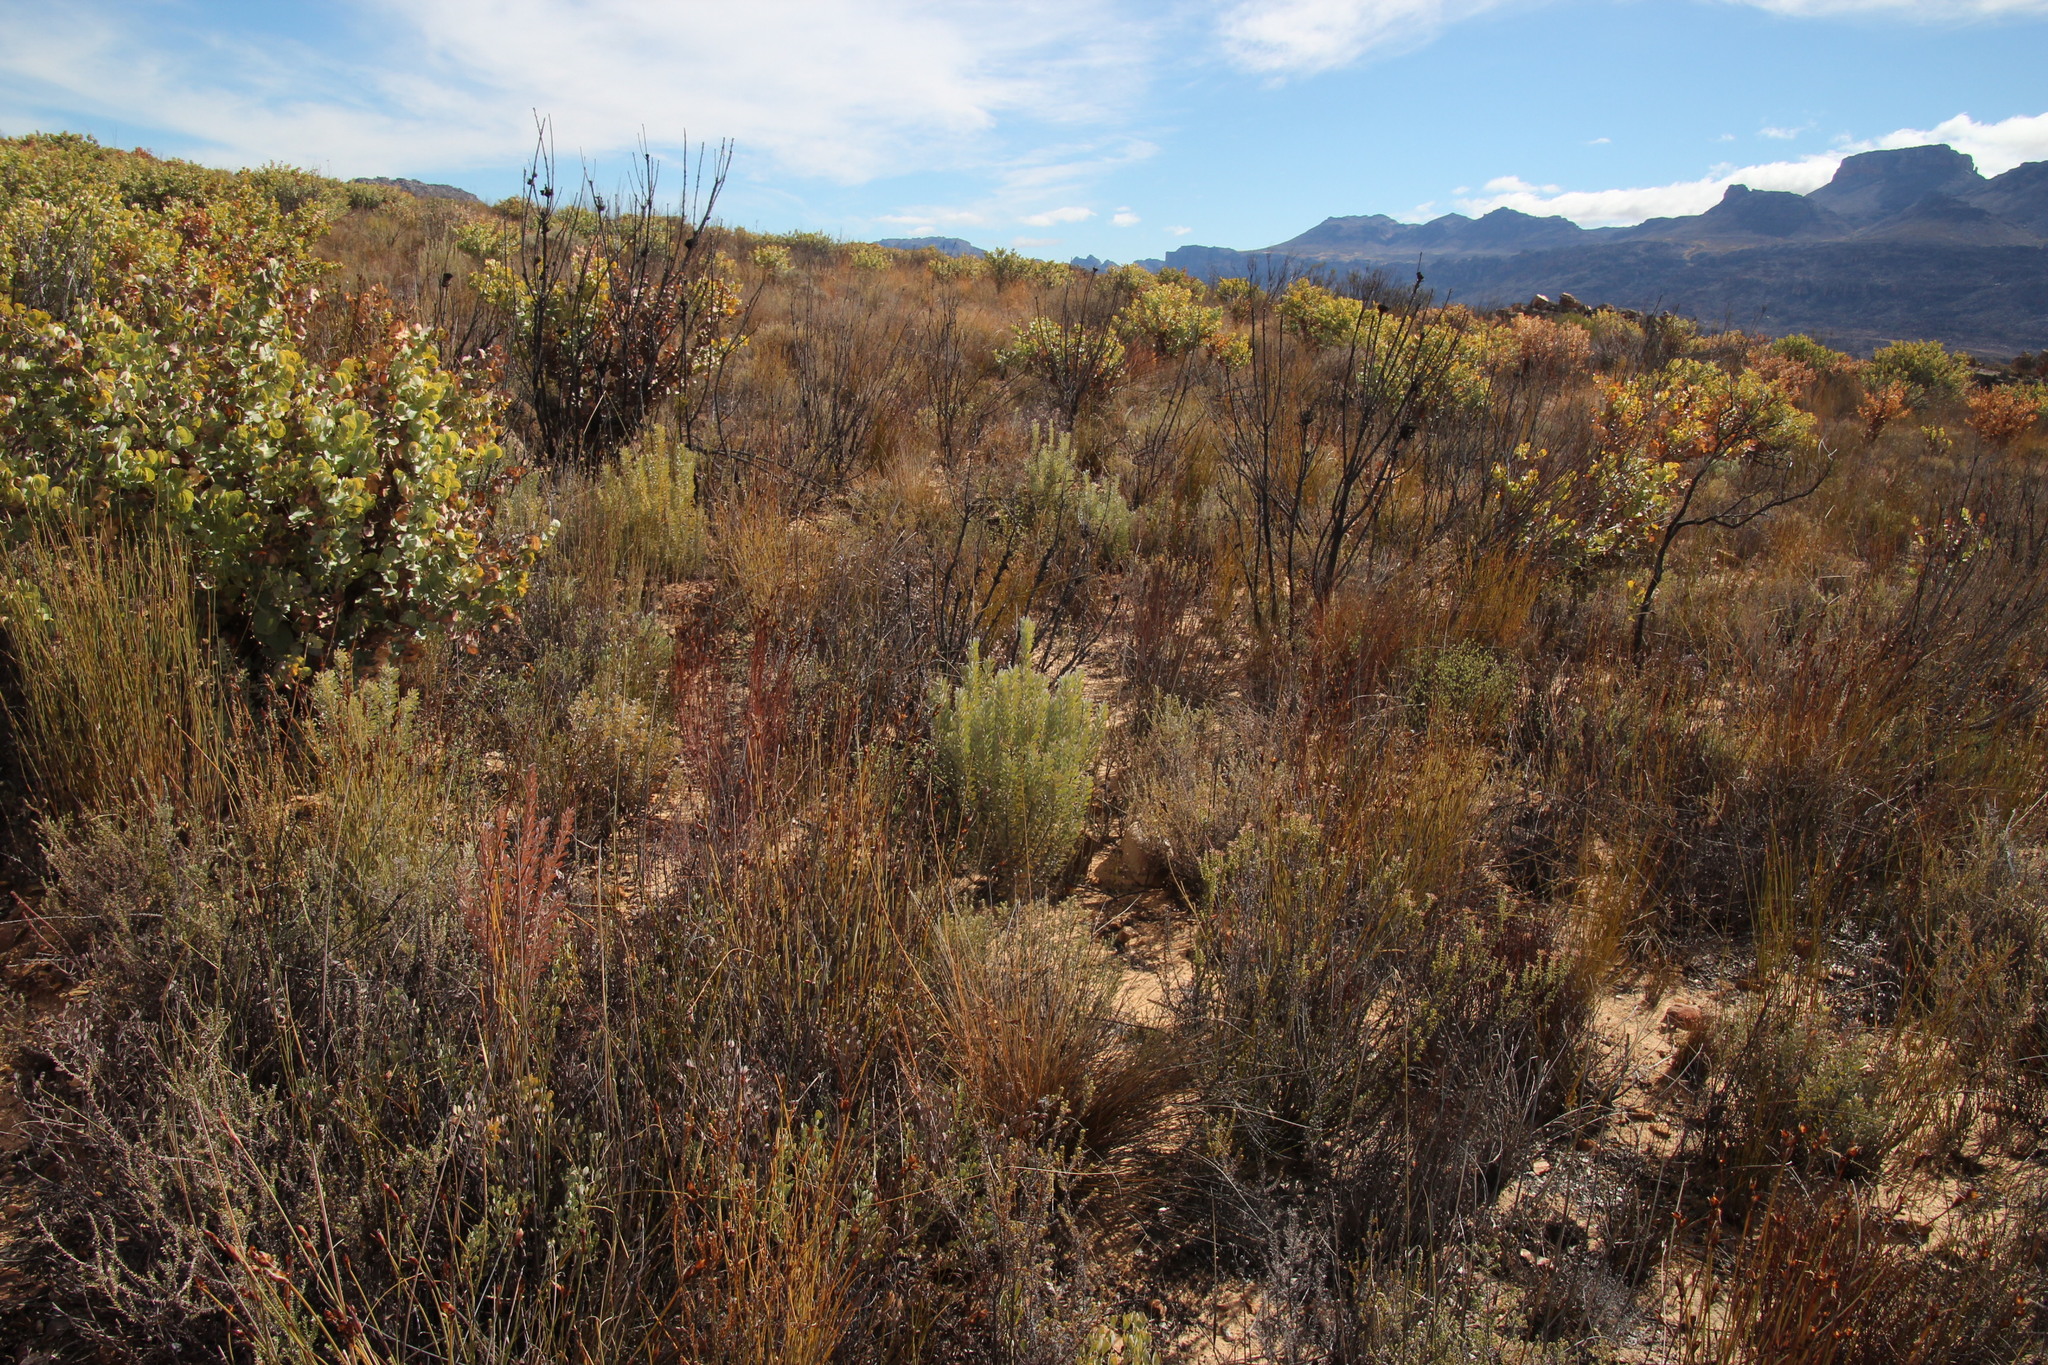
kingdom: Plantae
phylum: Tracheophyta
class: Magnoliopsida
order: Proteales
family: Proteaceae
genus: Leucadendron
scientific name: Leucadendron pubescens
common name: Grey conebush
